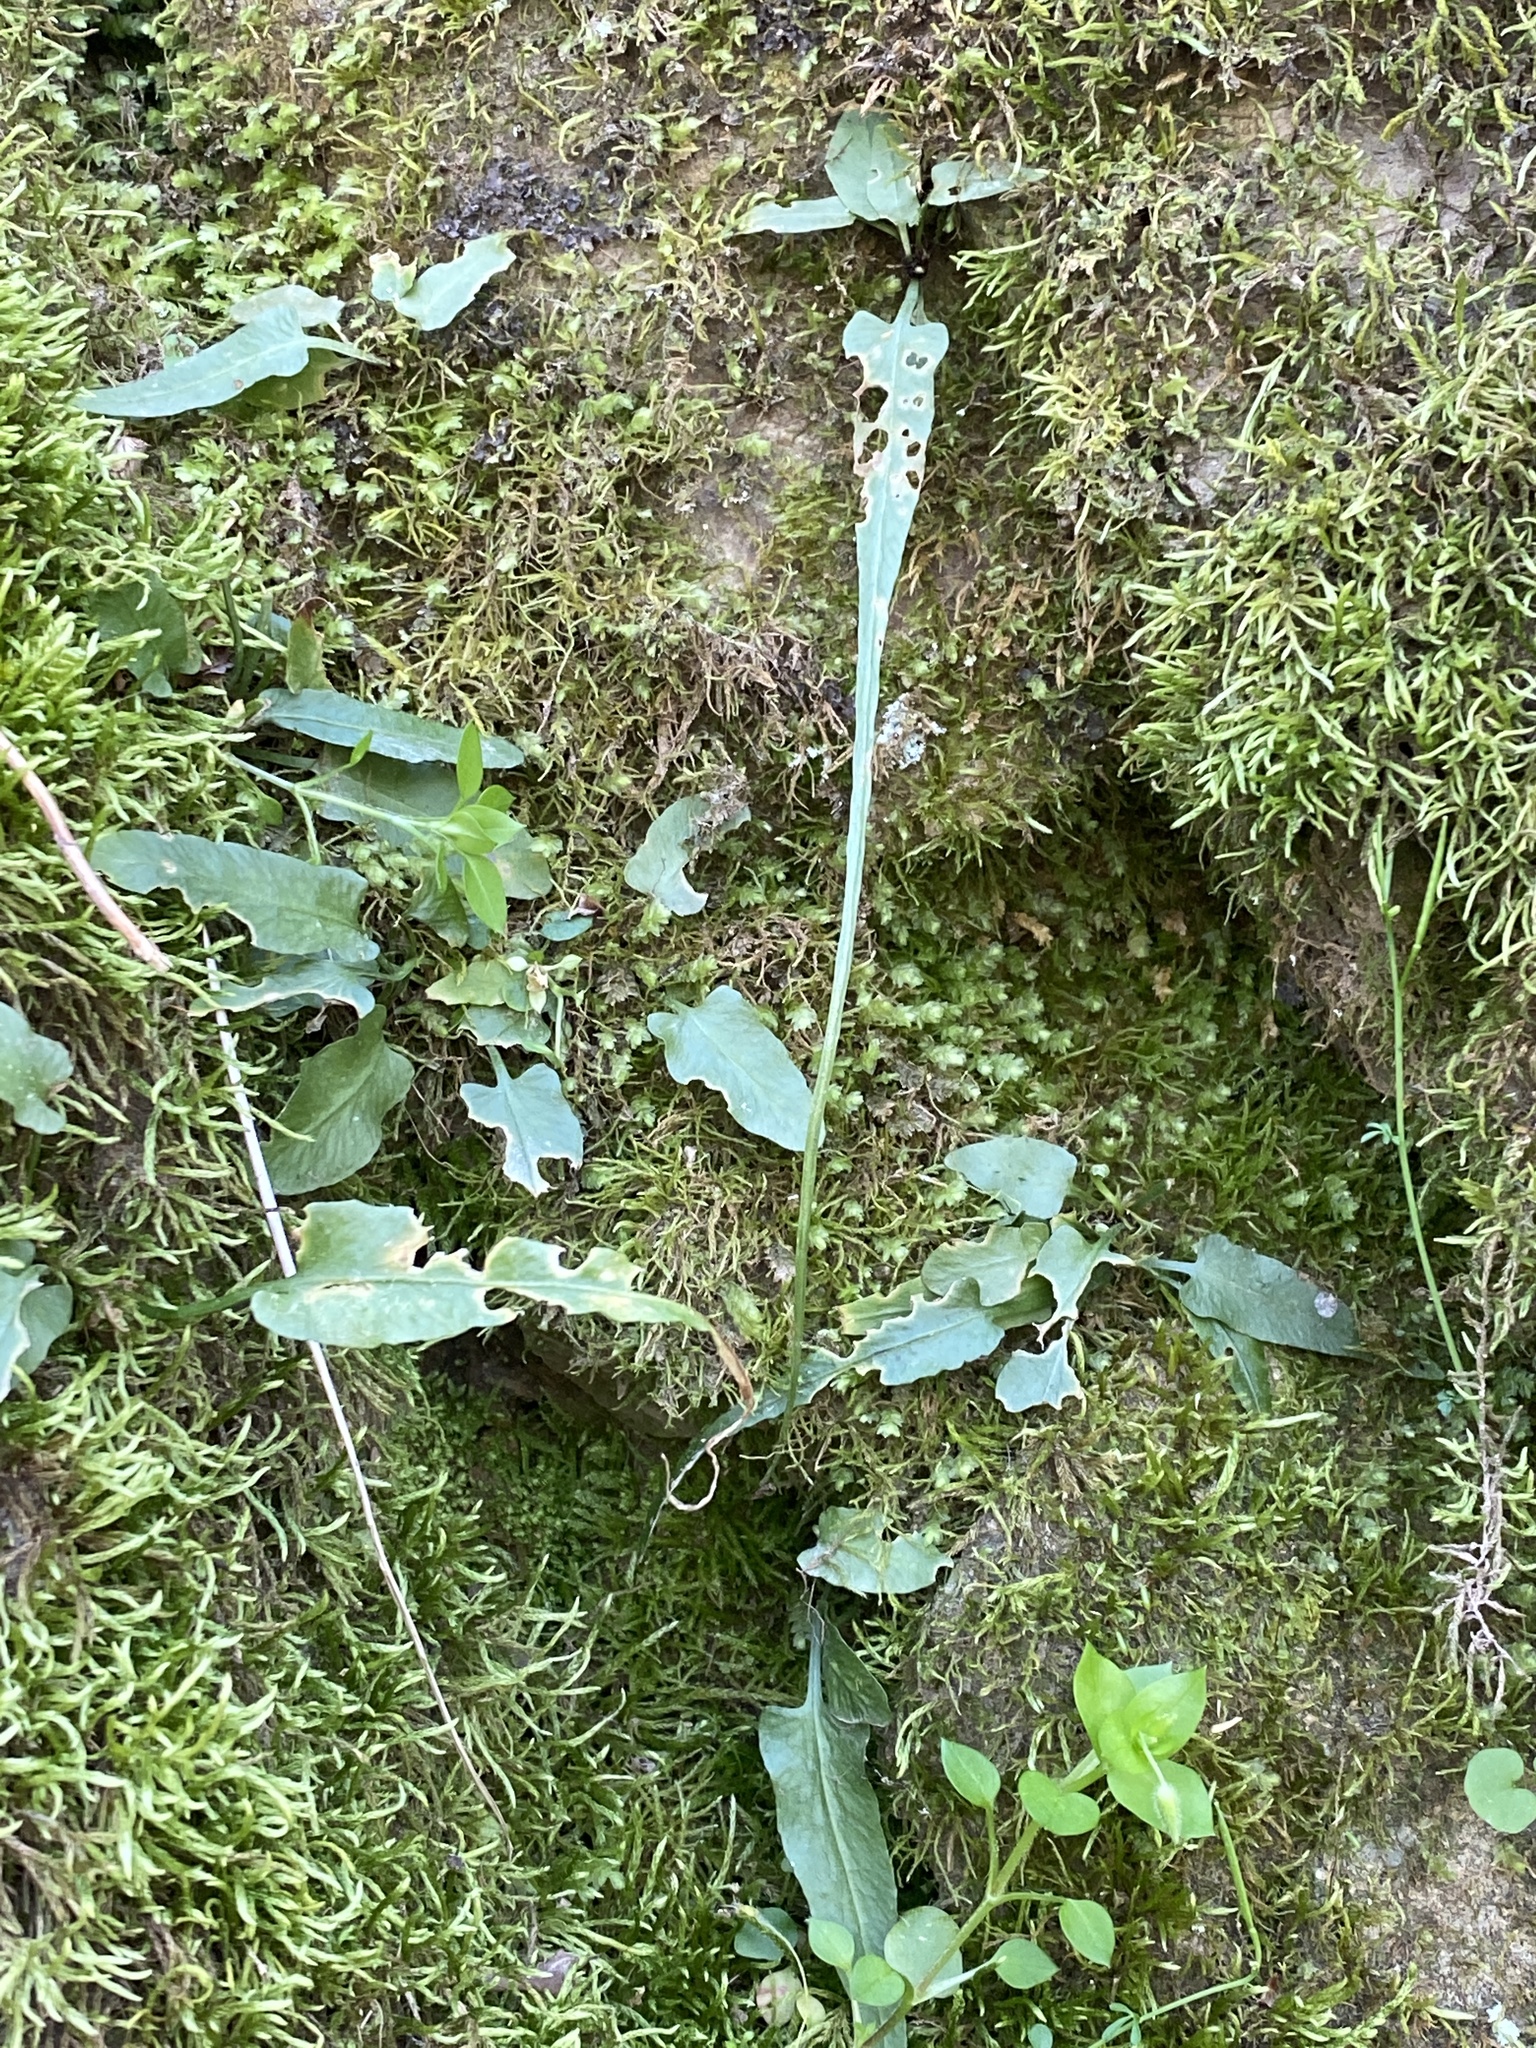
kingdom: Plantae
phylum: Tracheophyta
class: Polypodiopsida
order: Polypodiales
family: Aspleniaceae
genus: Asplenium
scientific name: Asplenium rhizophyllum
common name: Walking fern
